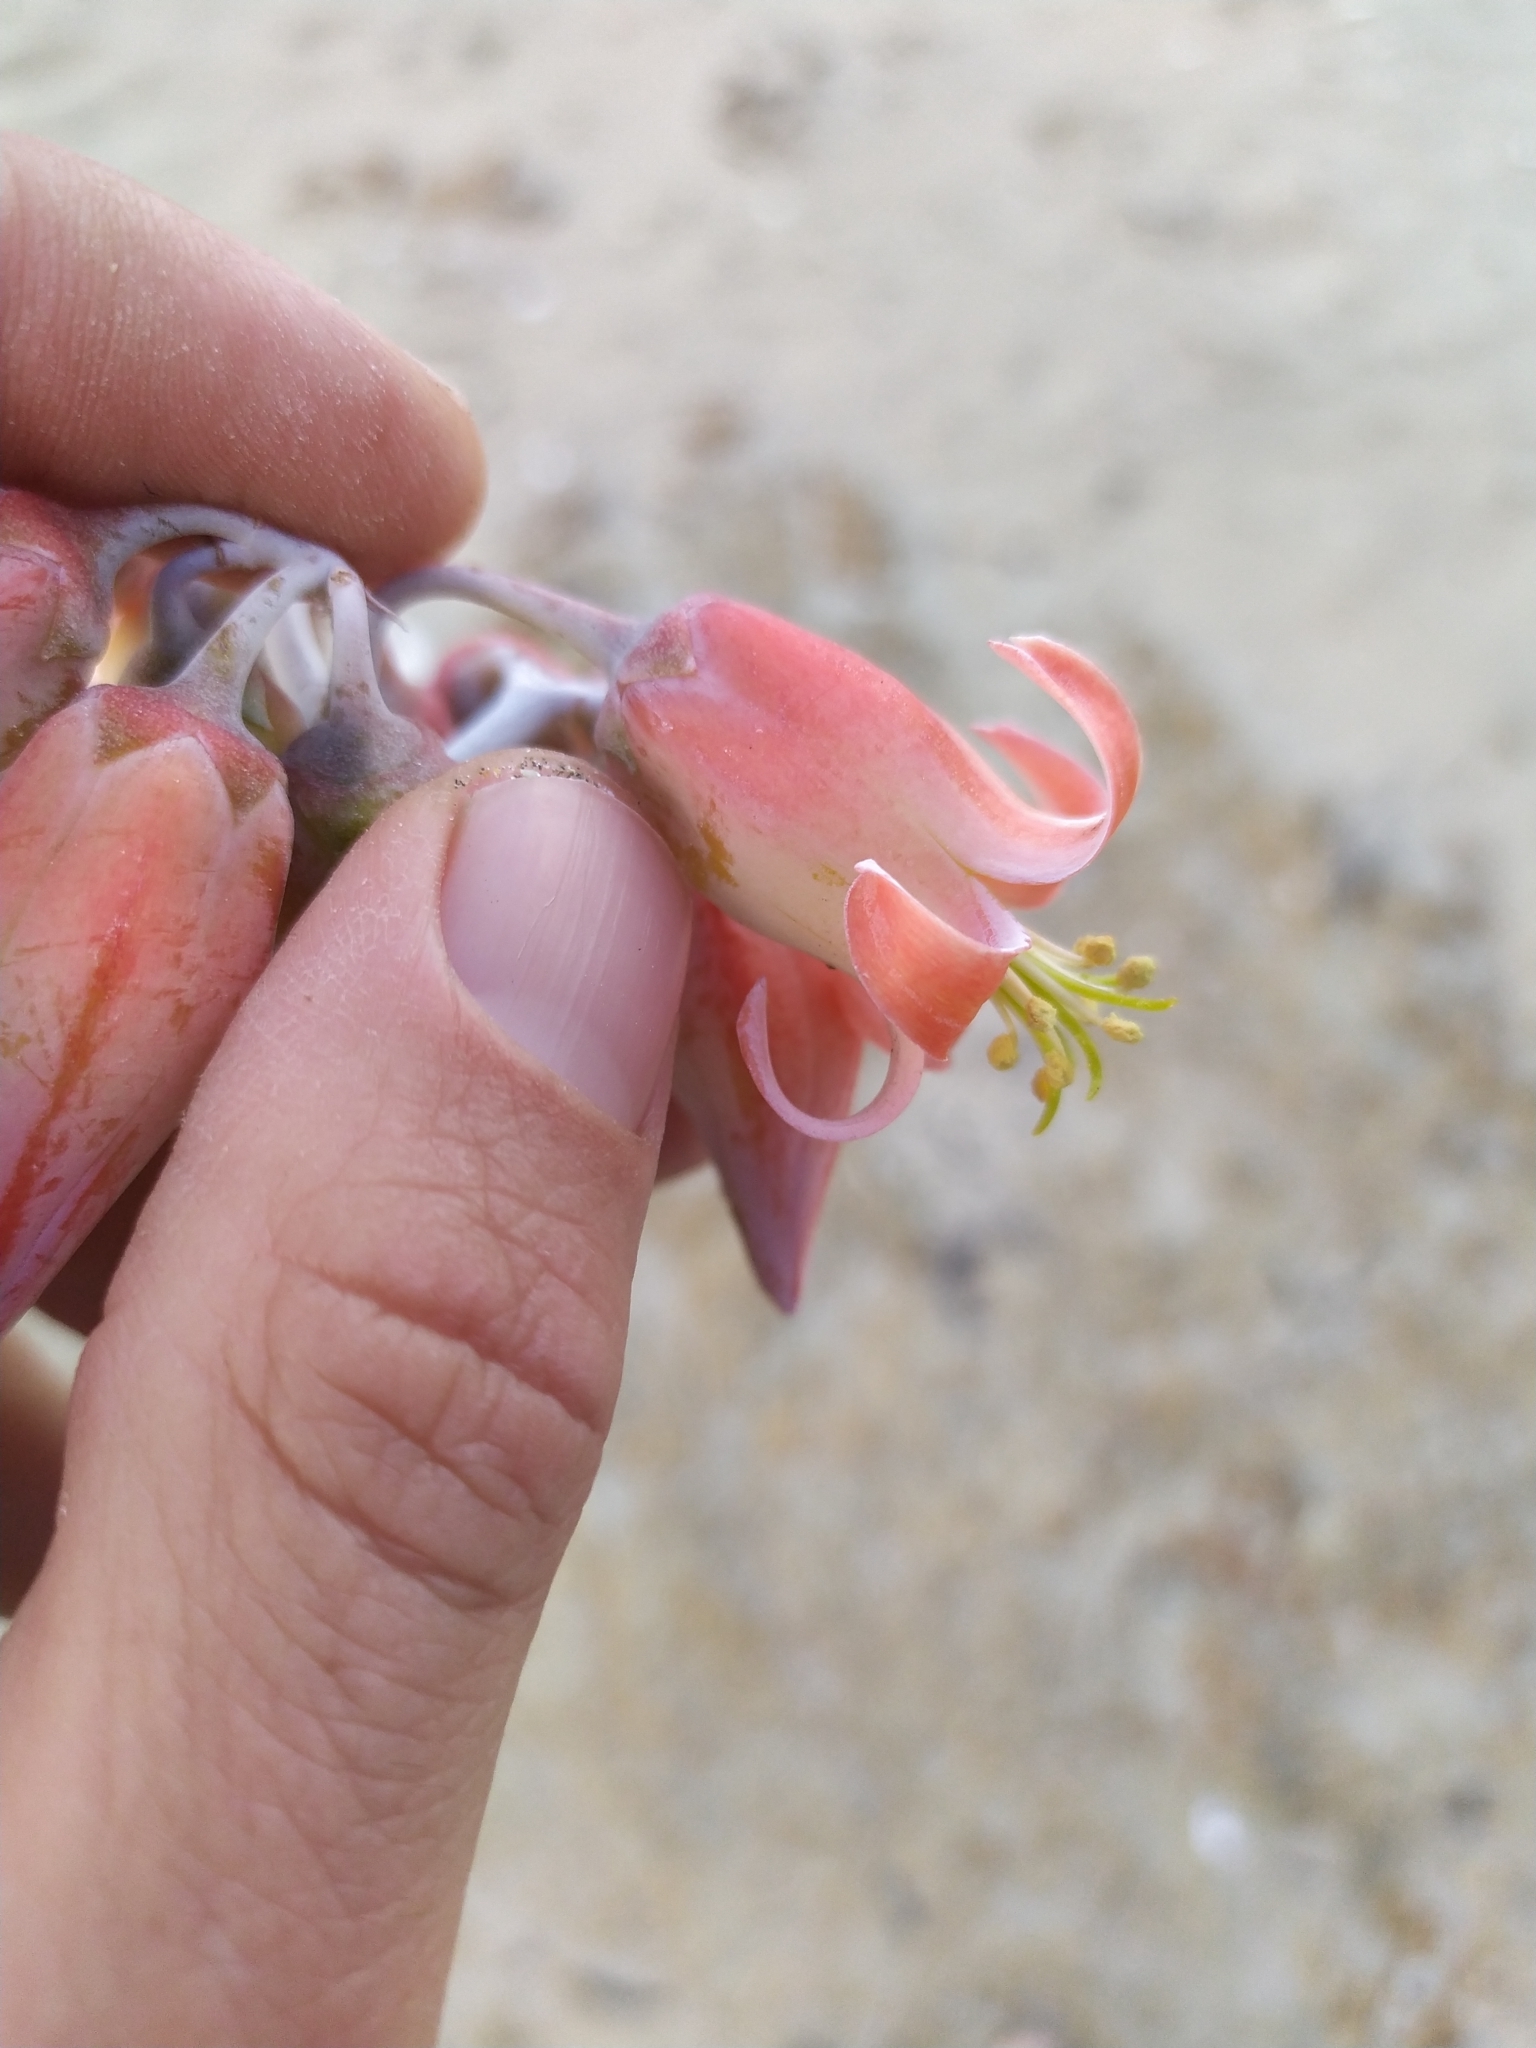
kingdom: Plantae
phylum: Tracheophyta
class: Magnoliopsida
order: Saxifragales
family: Crassulaceae
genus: Cotyledon
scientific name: Cotyledon orbiculata
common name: Pig's ear
